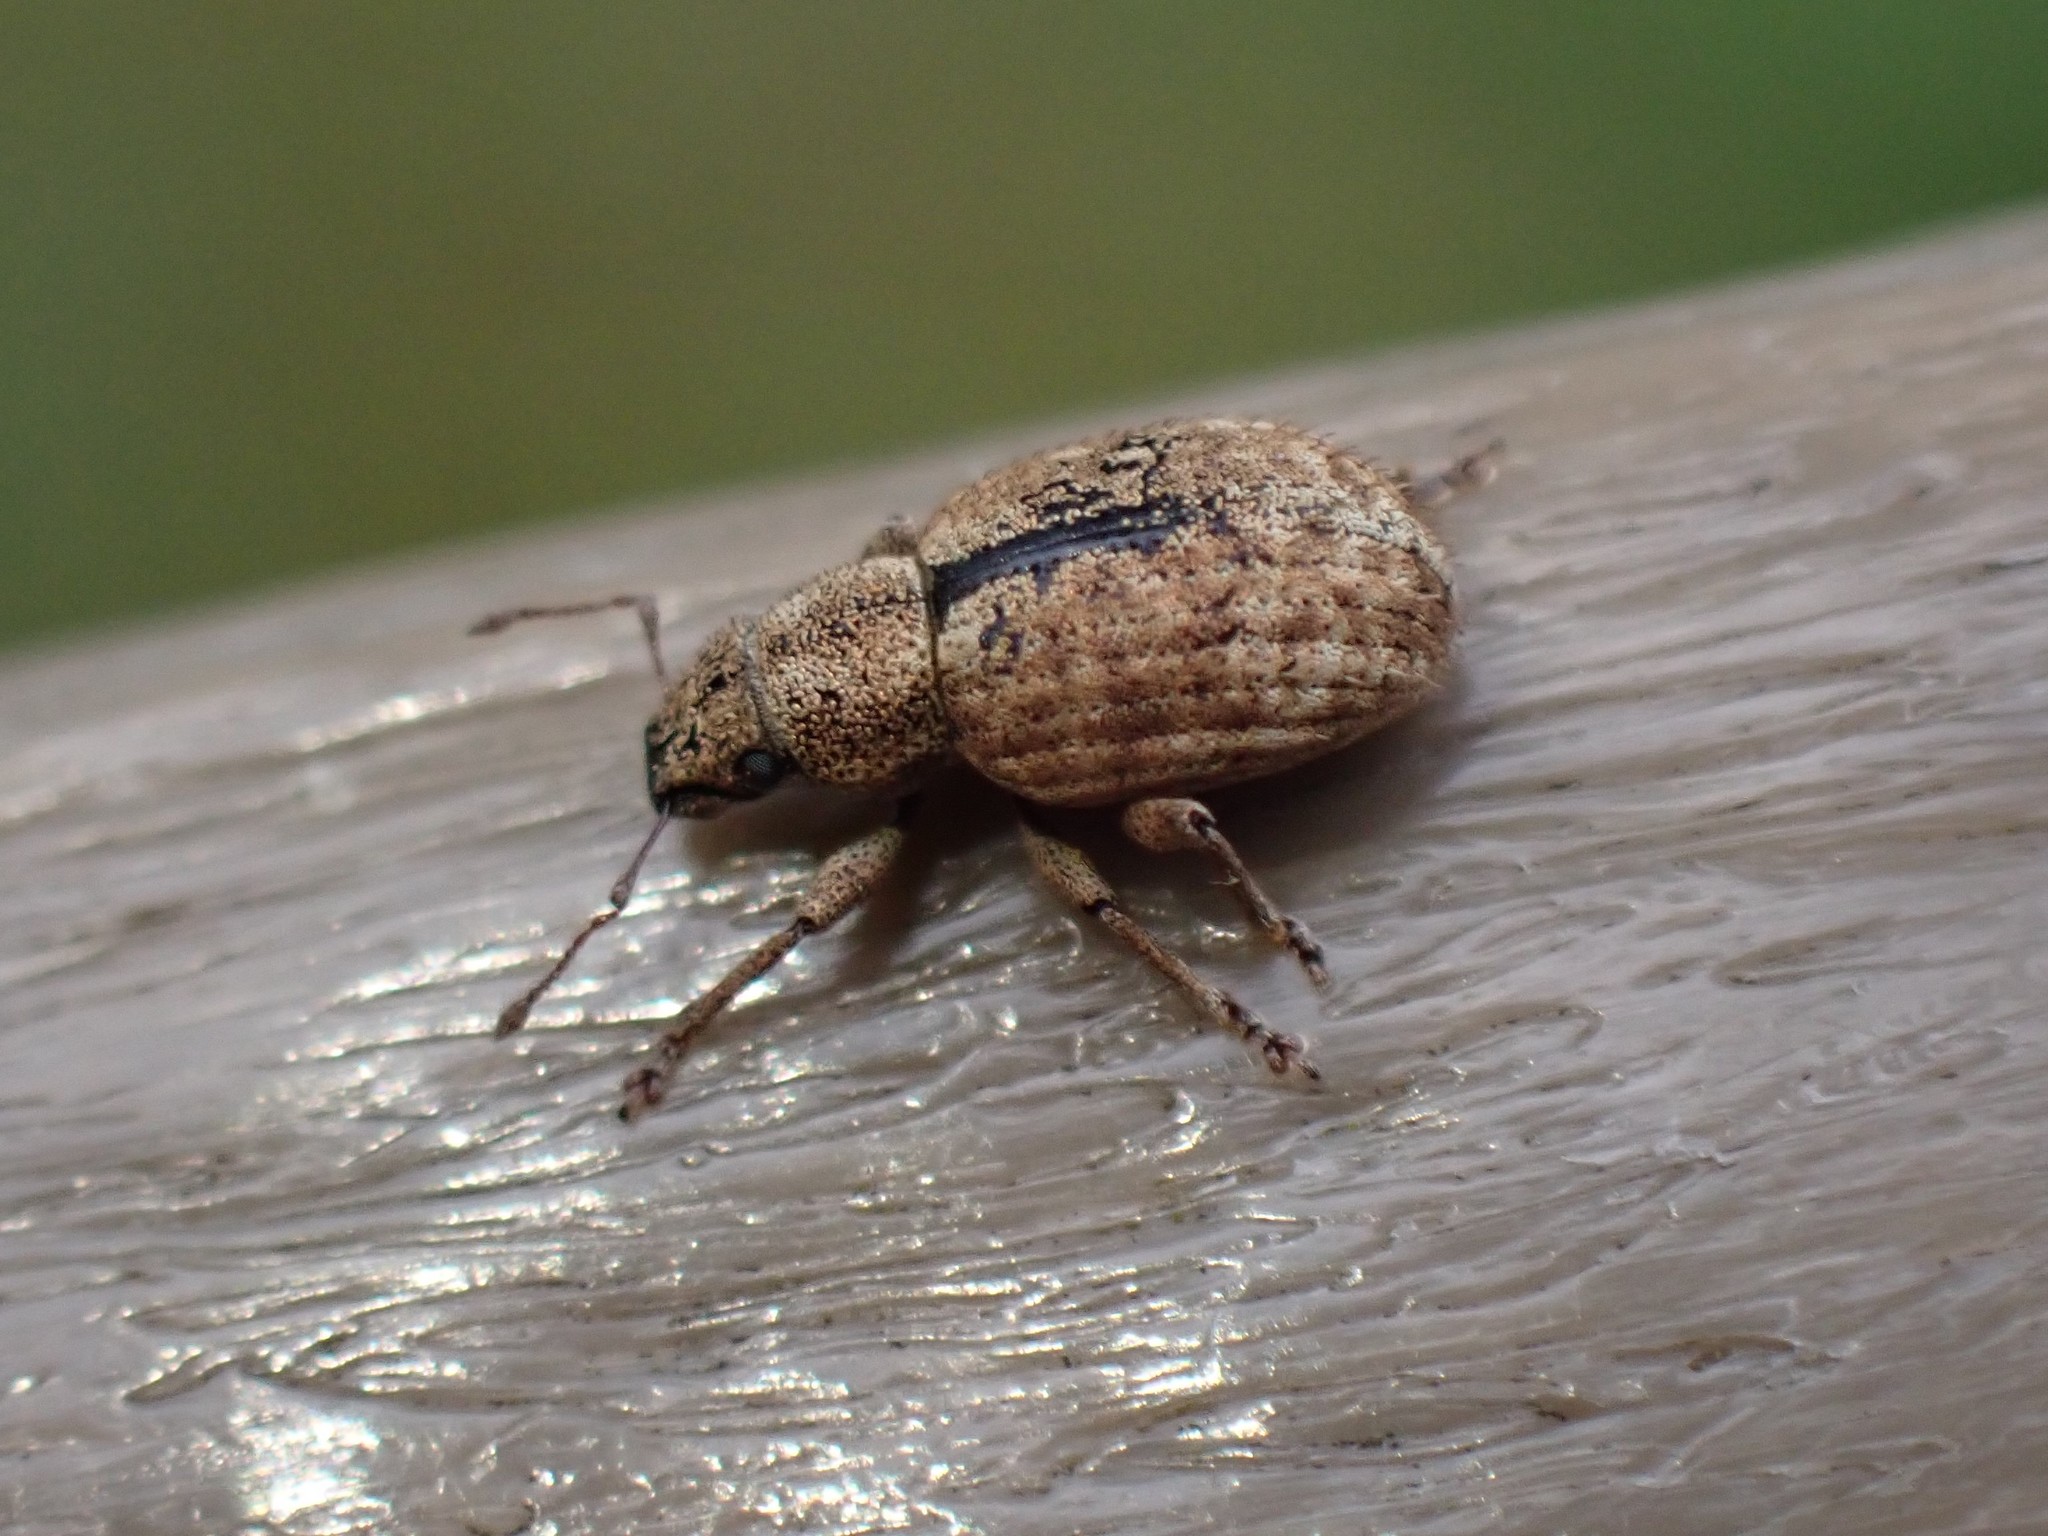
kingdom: Animalia
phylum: Arthropoda
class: Insecta
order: Coleoptera
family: Curculionidae
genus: Strophosoma
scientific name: Strophosoma melanogrammum
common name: Weevil
